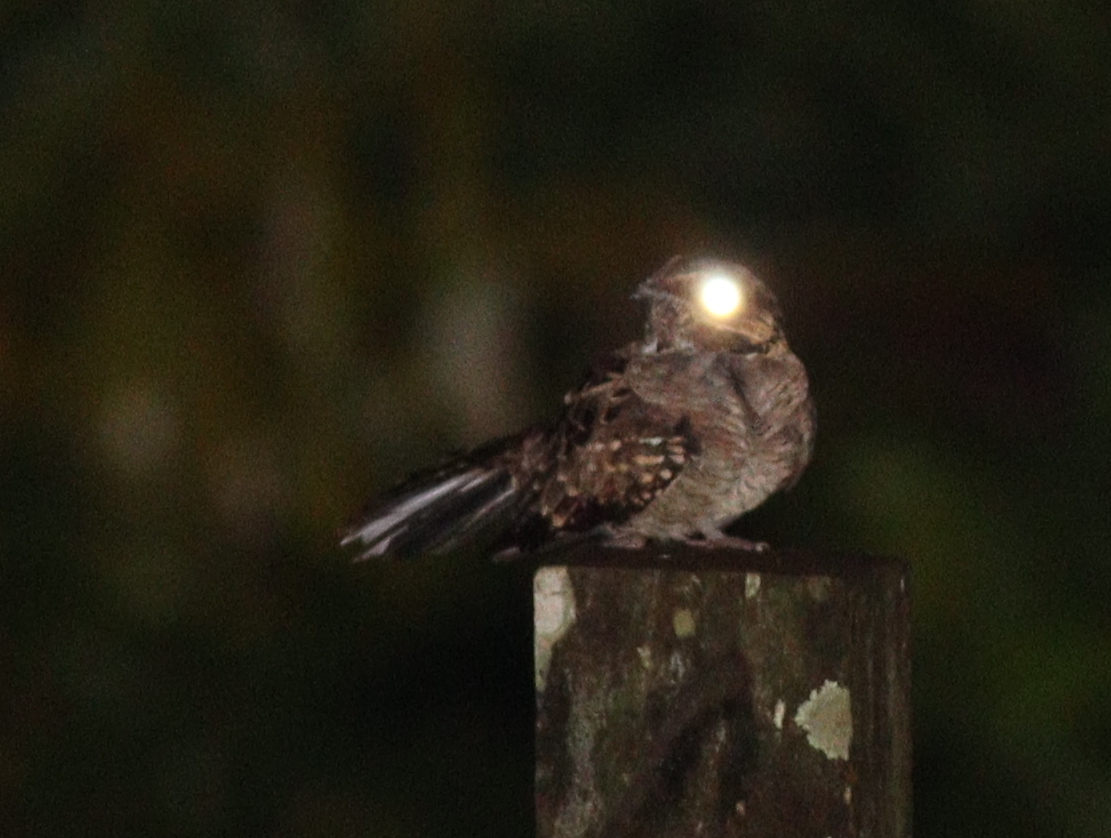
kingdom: Animalia
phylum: Chordata
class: Aves
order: Caprimulgiformes
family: Caprimulgidae
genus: Nyctidromus
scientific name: Nyctidromus albicollis
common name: Pauraque
